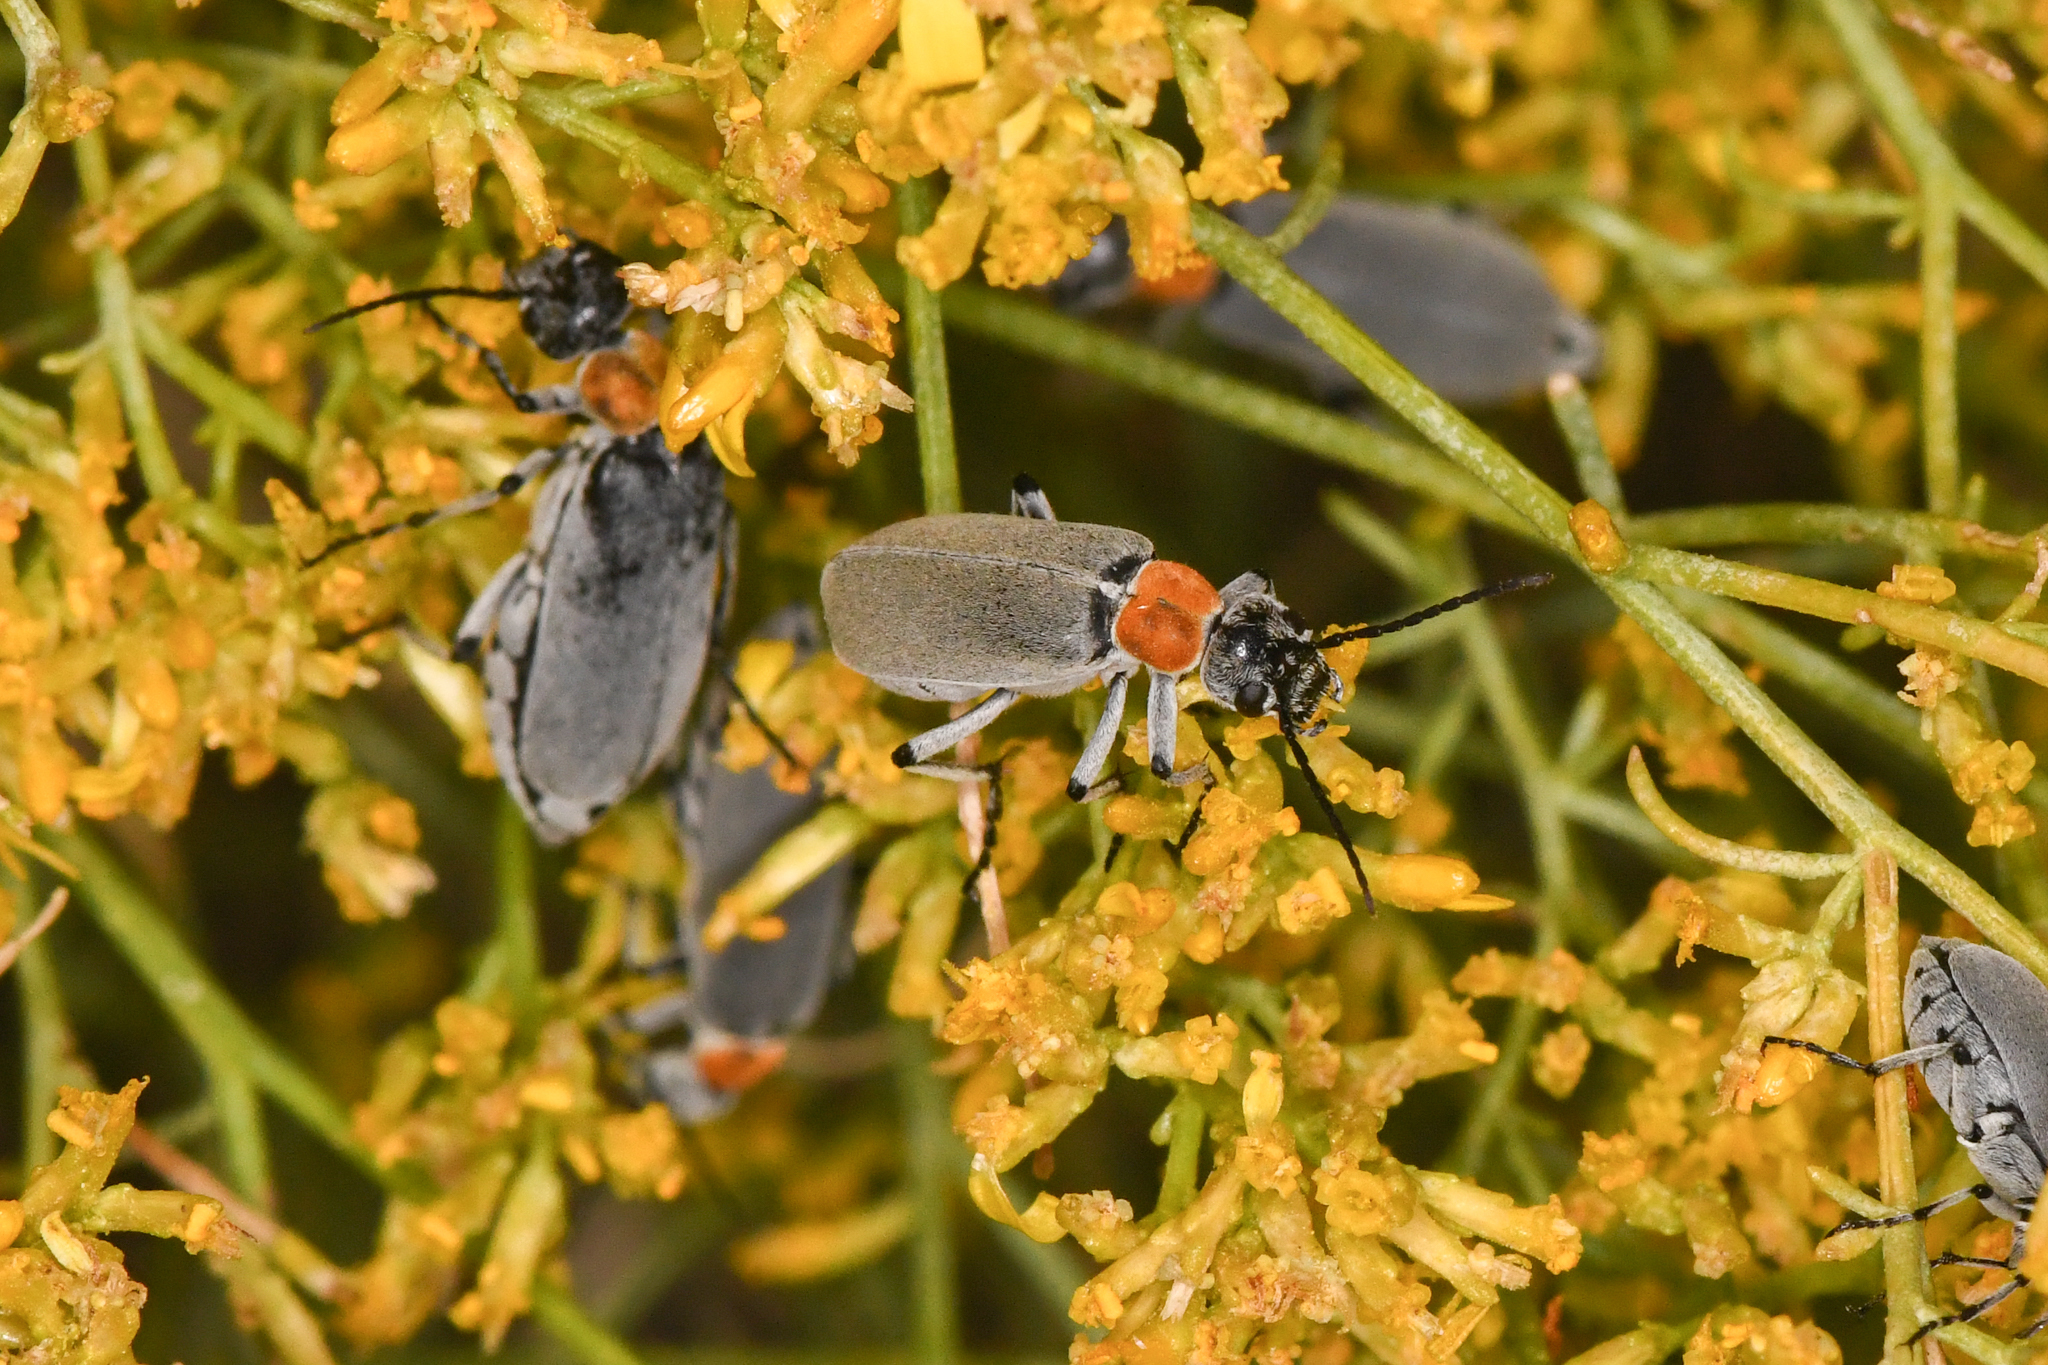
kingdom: Animalia
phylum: Arthropoda
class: Insecta
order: Coleoptera
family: Meloidae
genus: Epicauta
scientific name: Epicauta wheeleri
